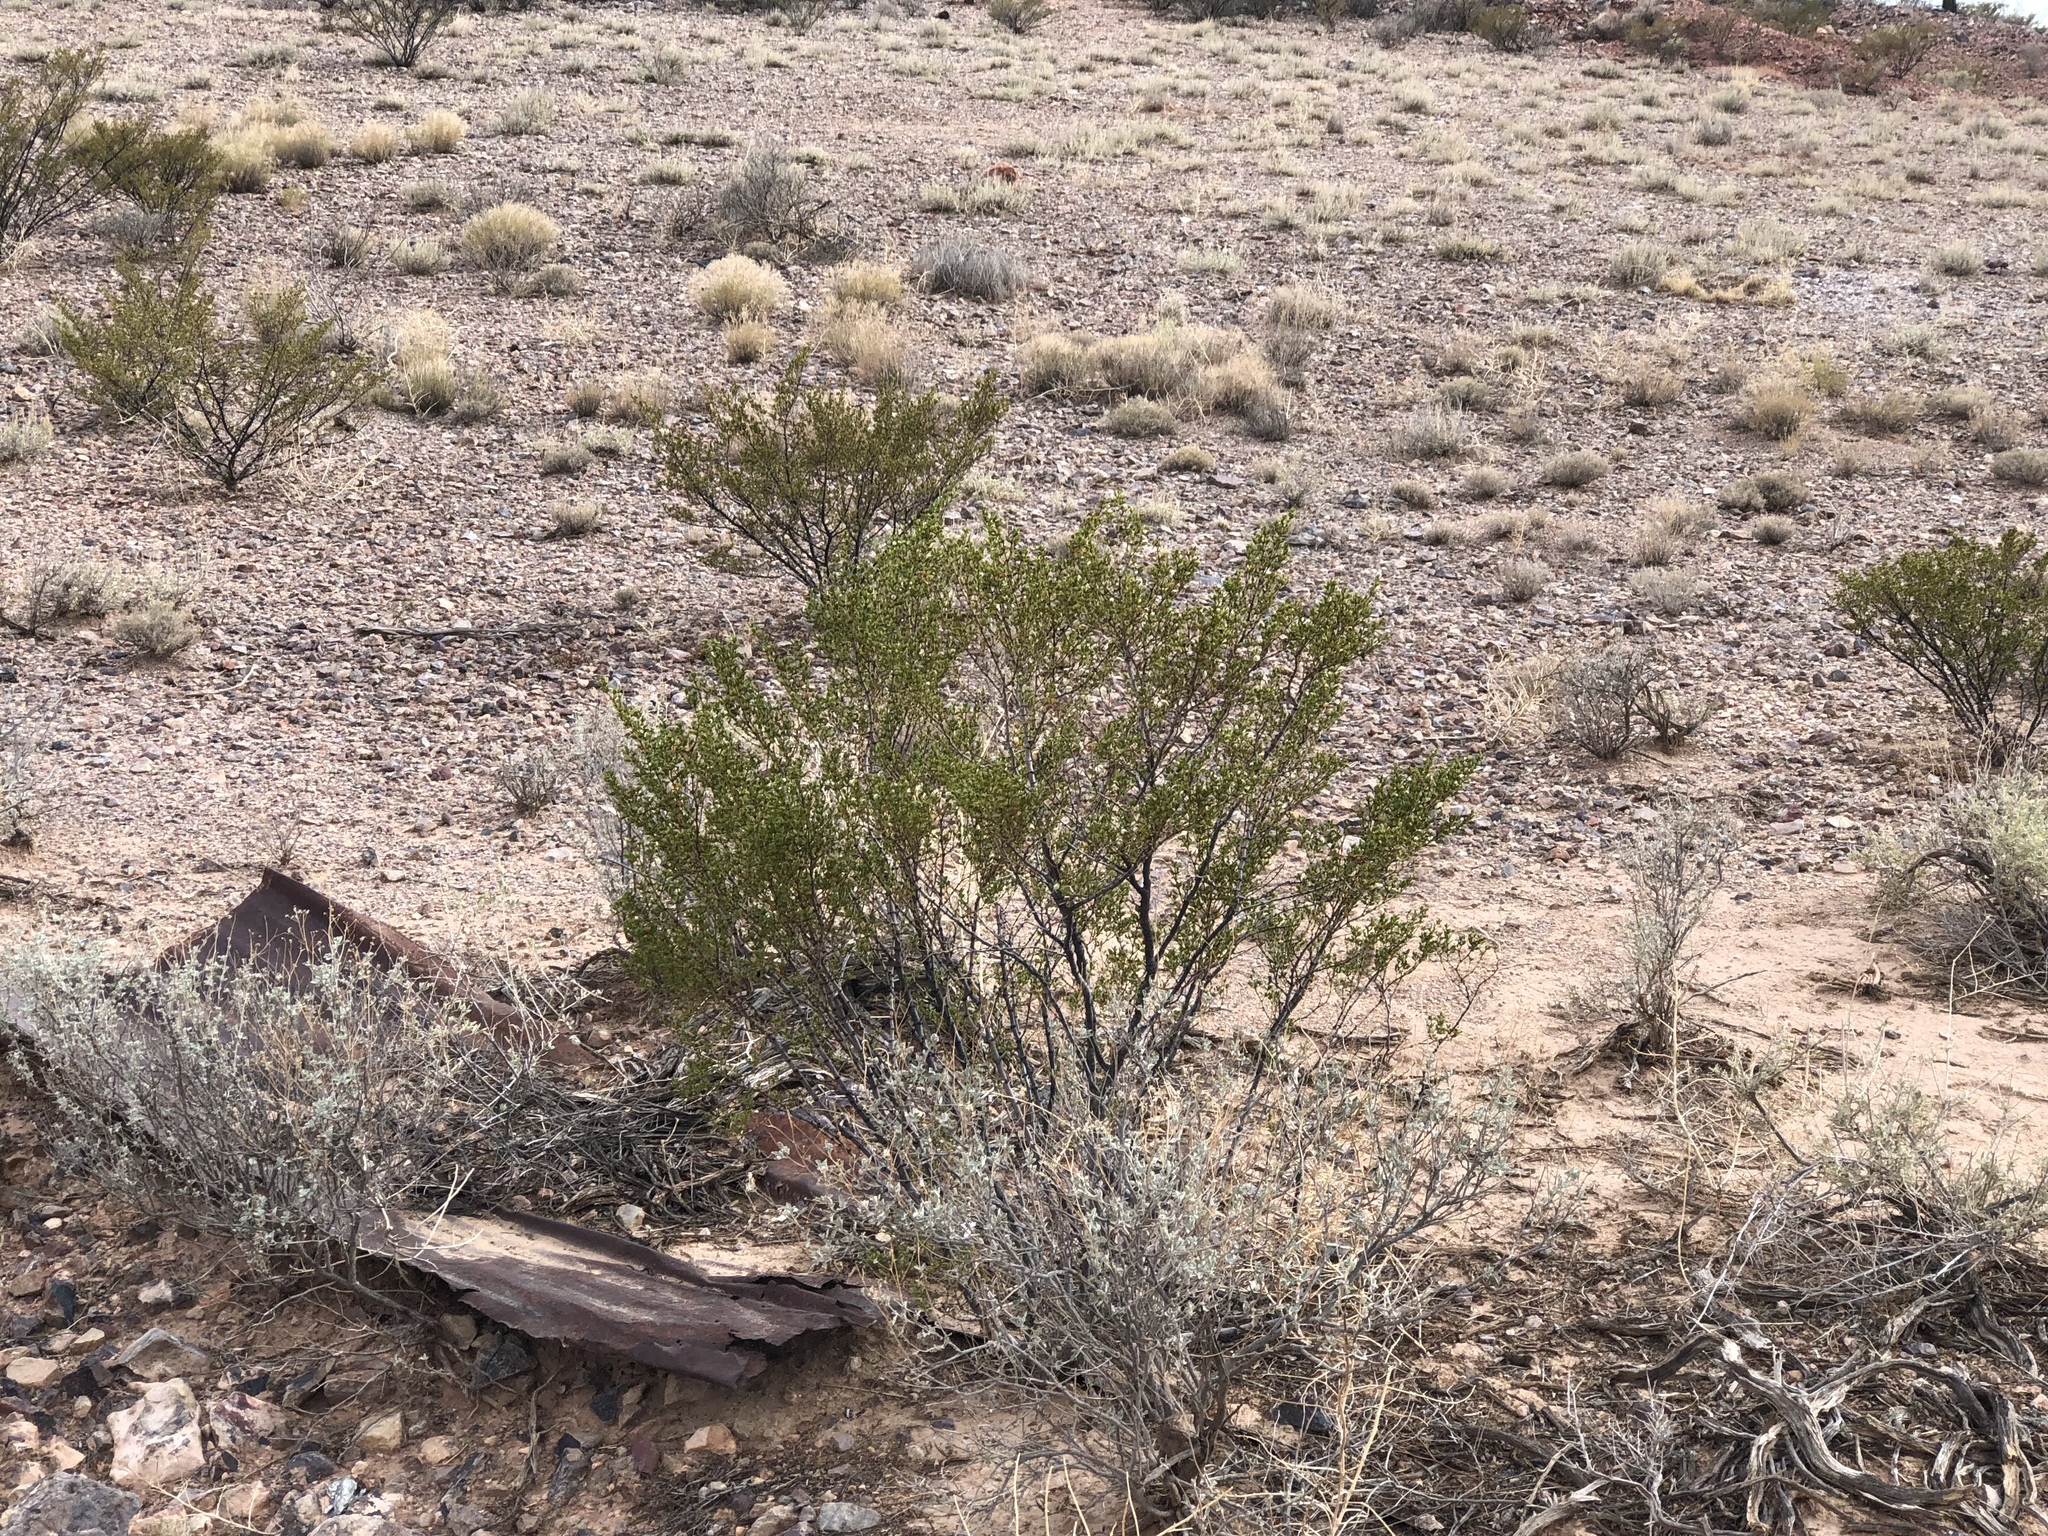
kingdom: Plantae
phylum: Tracheophyta
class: Magnoliopsida
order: Zygophyllales
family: Zygophyllaceae
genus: Larrea
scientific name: Larrea tridentata
